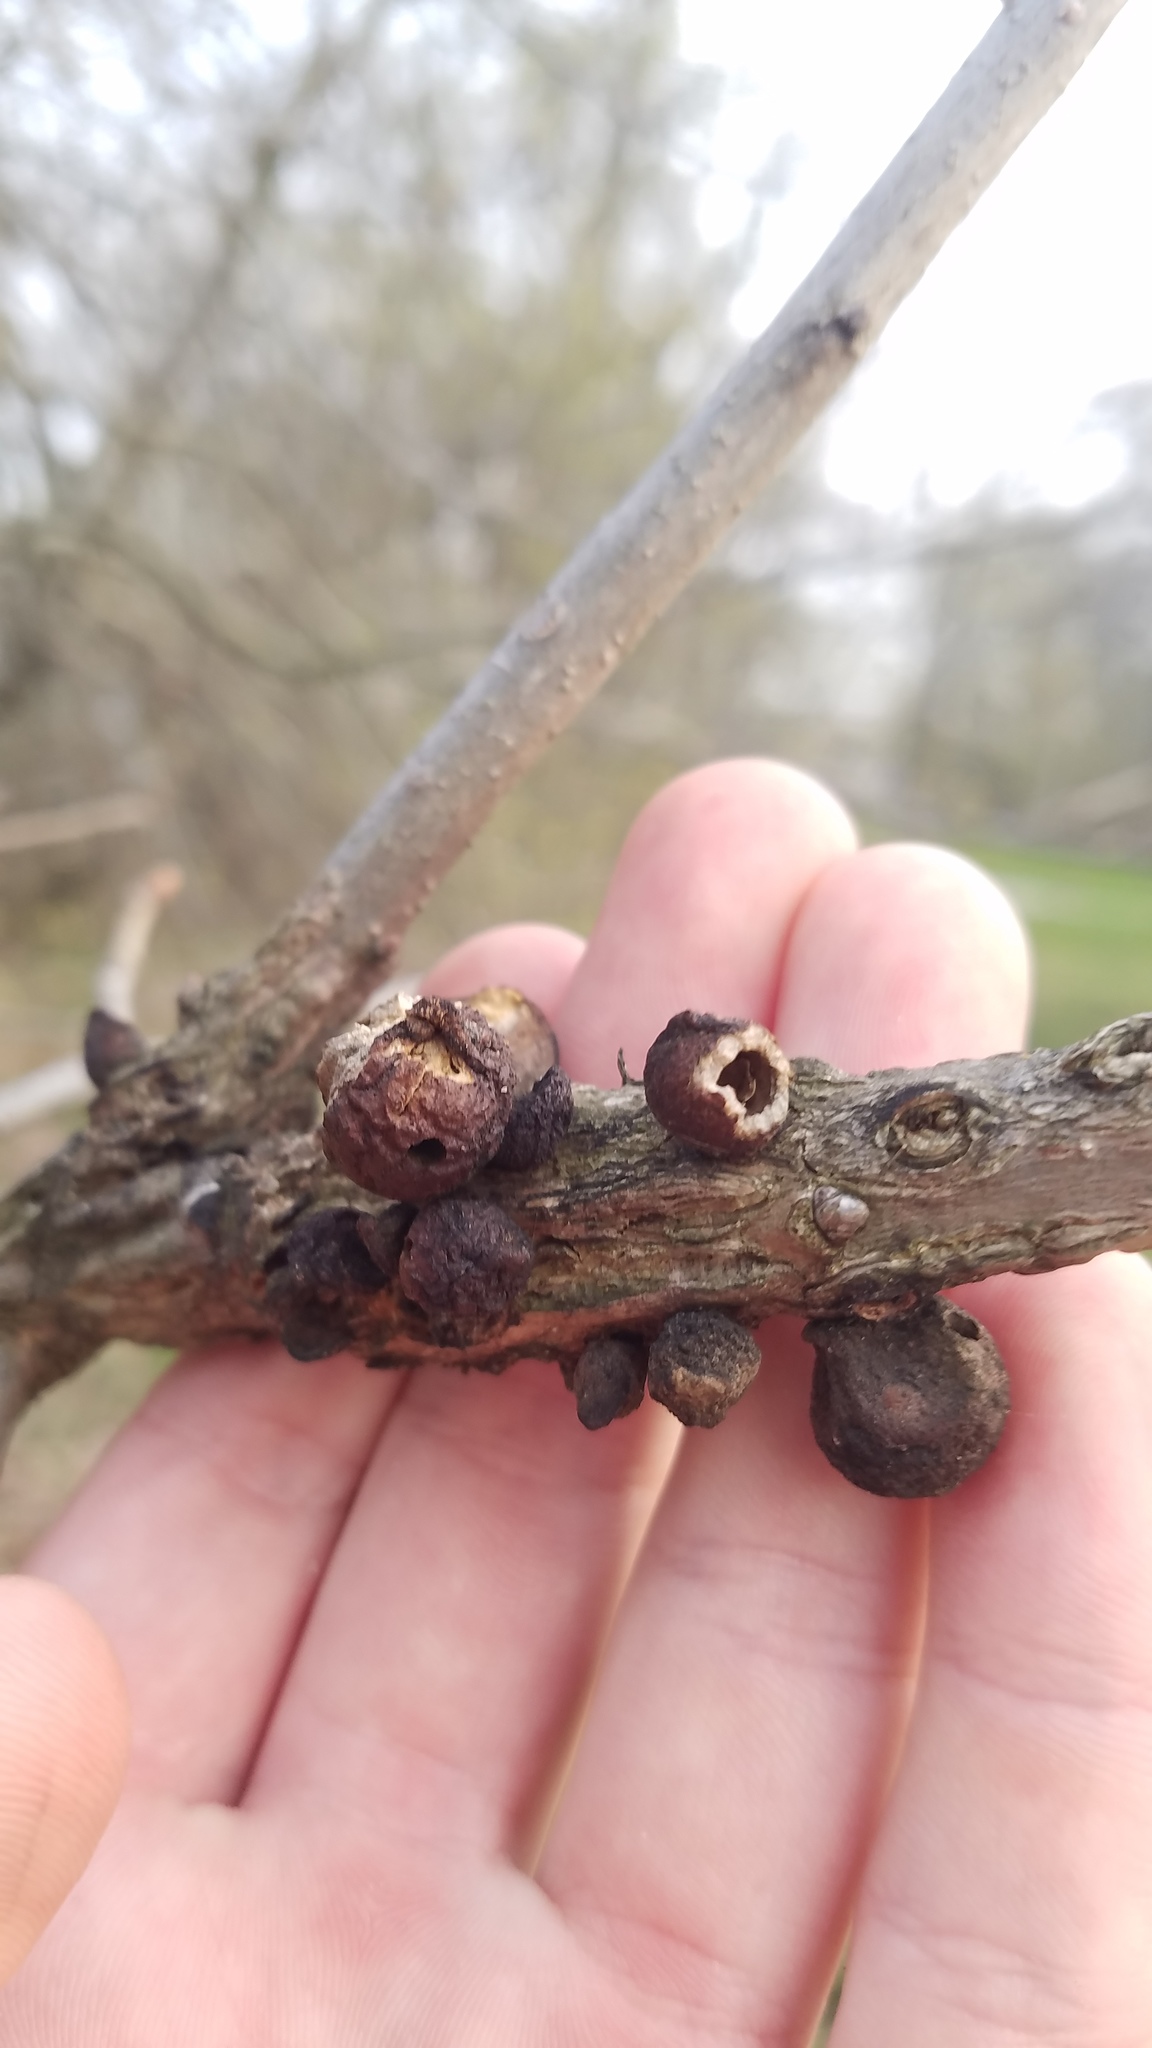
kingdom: Animalia
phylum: Arthropoda
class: Insecta
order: Hymenoptera
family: Cynipidae
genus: Disholcaspis
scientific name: Disholcaspis
